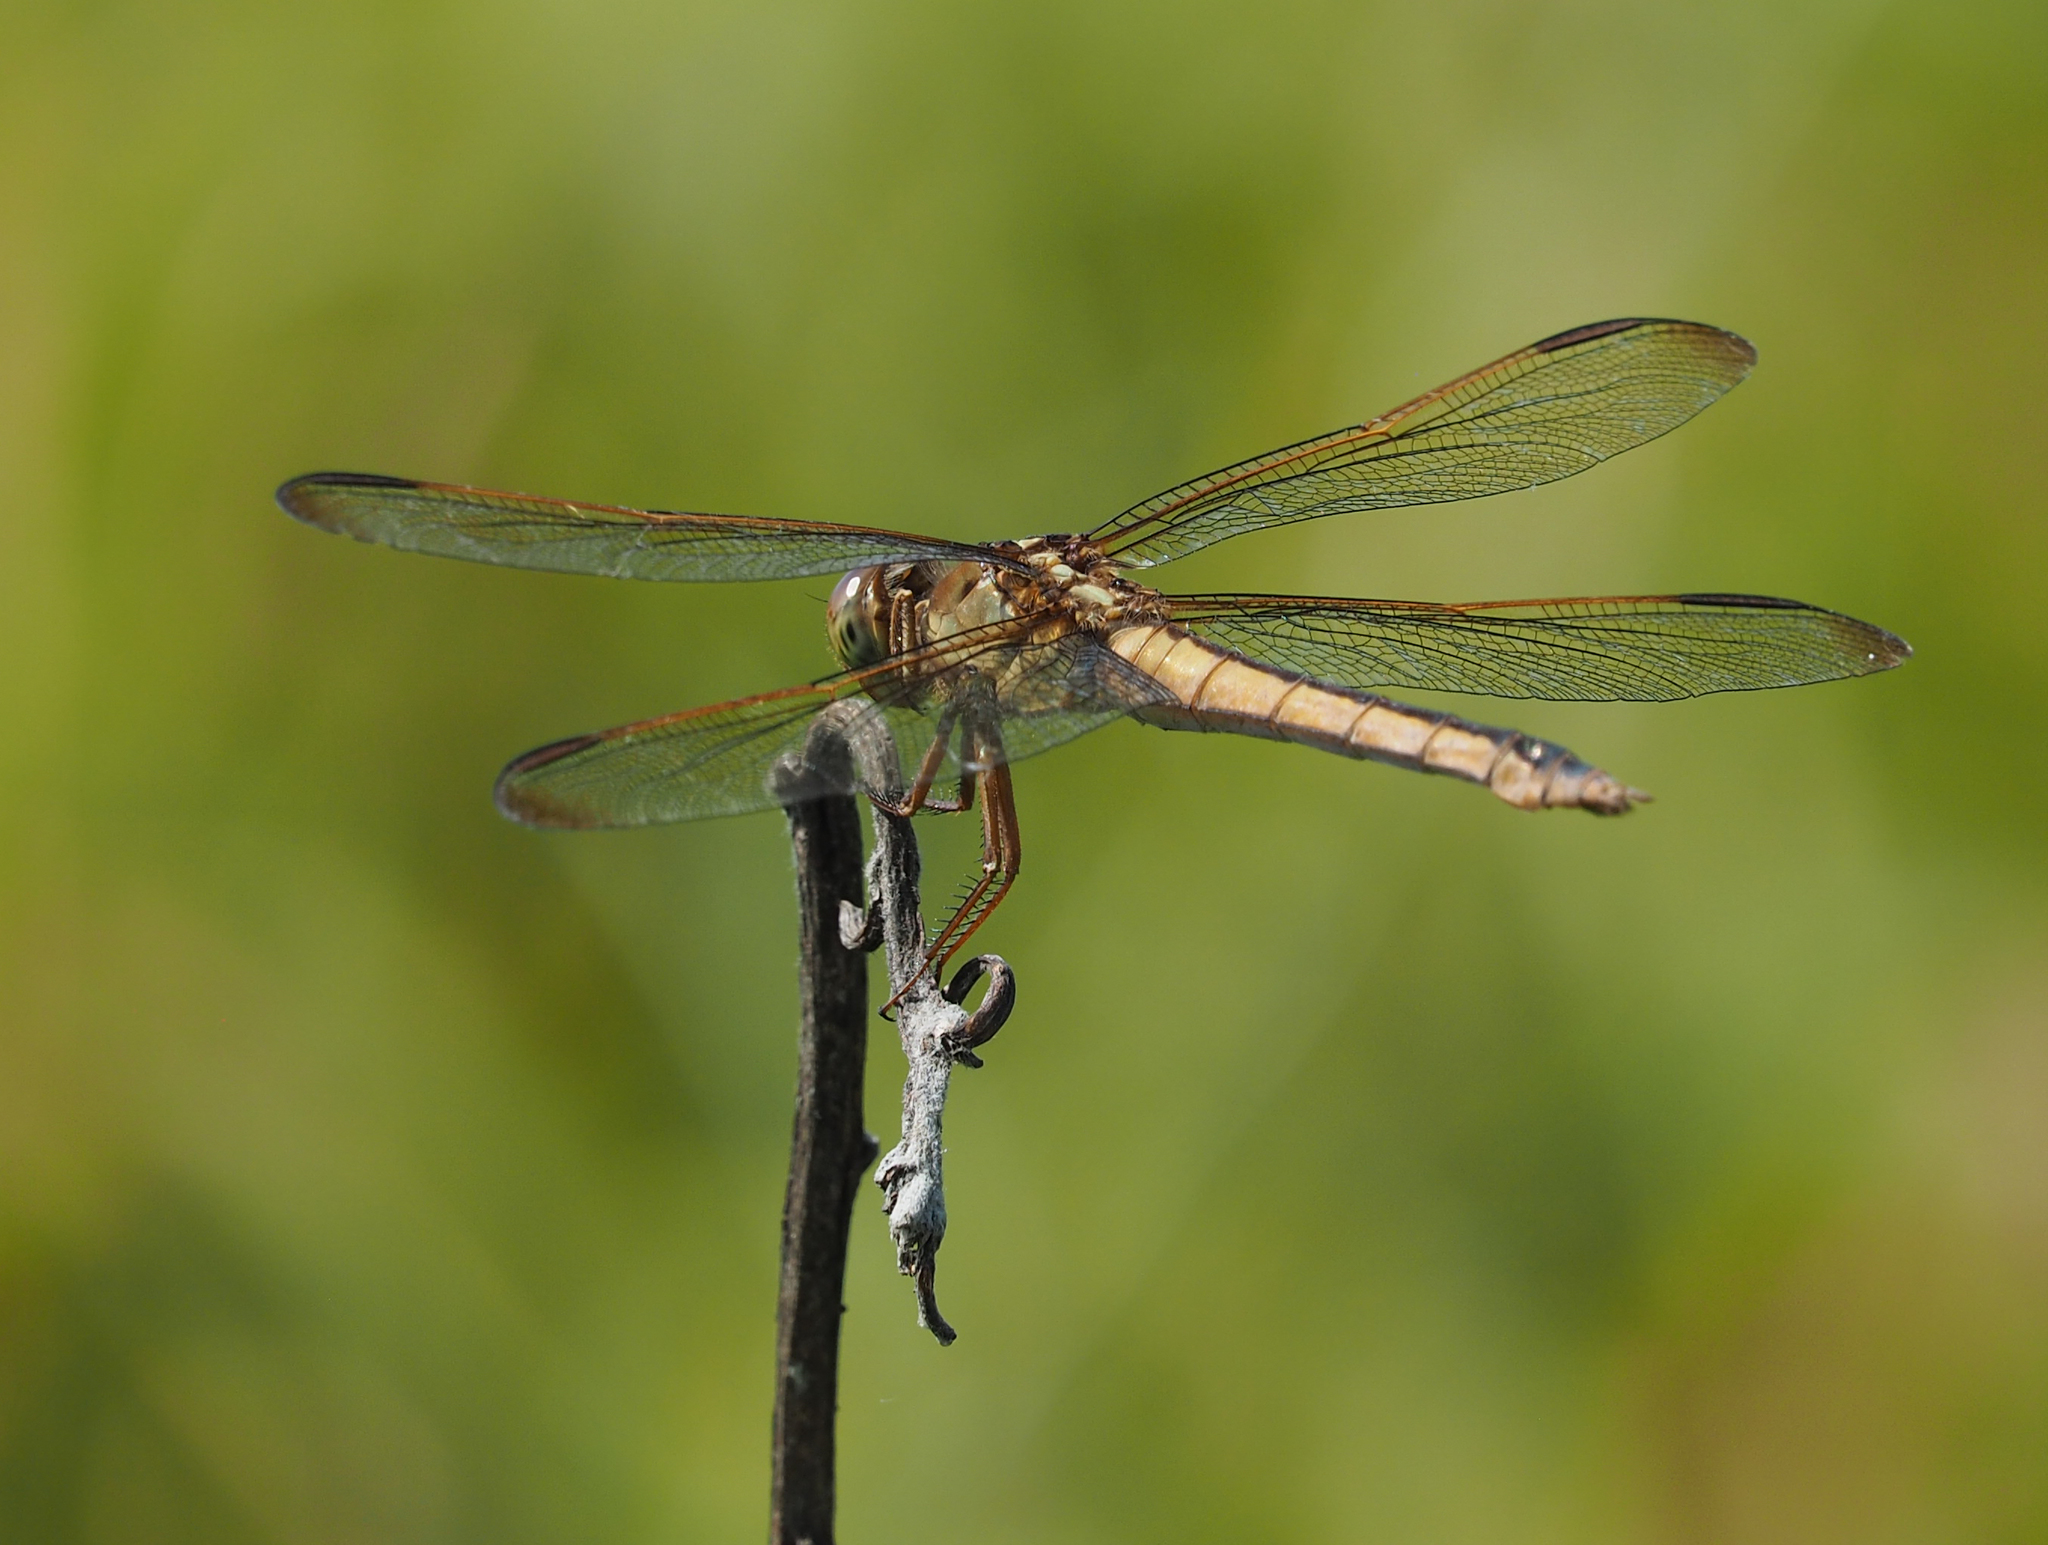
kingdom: Animalia
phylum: Arthropoda
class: Insecta
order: Odonata
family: Libellulidae
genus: Libellula
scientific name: Libellula needhami
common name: Needham's skimmer
